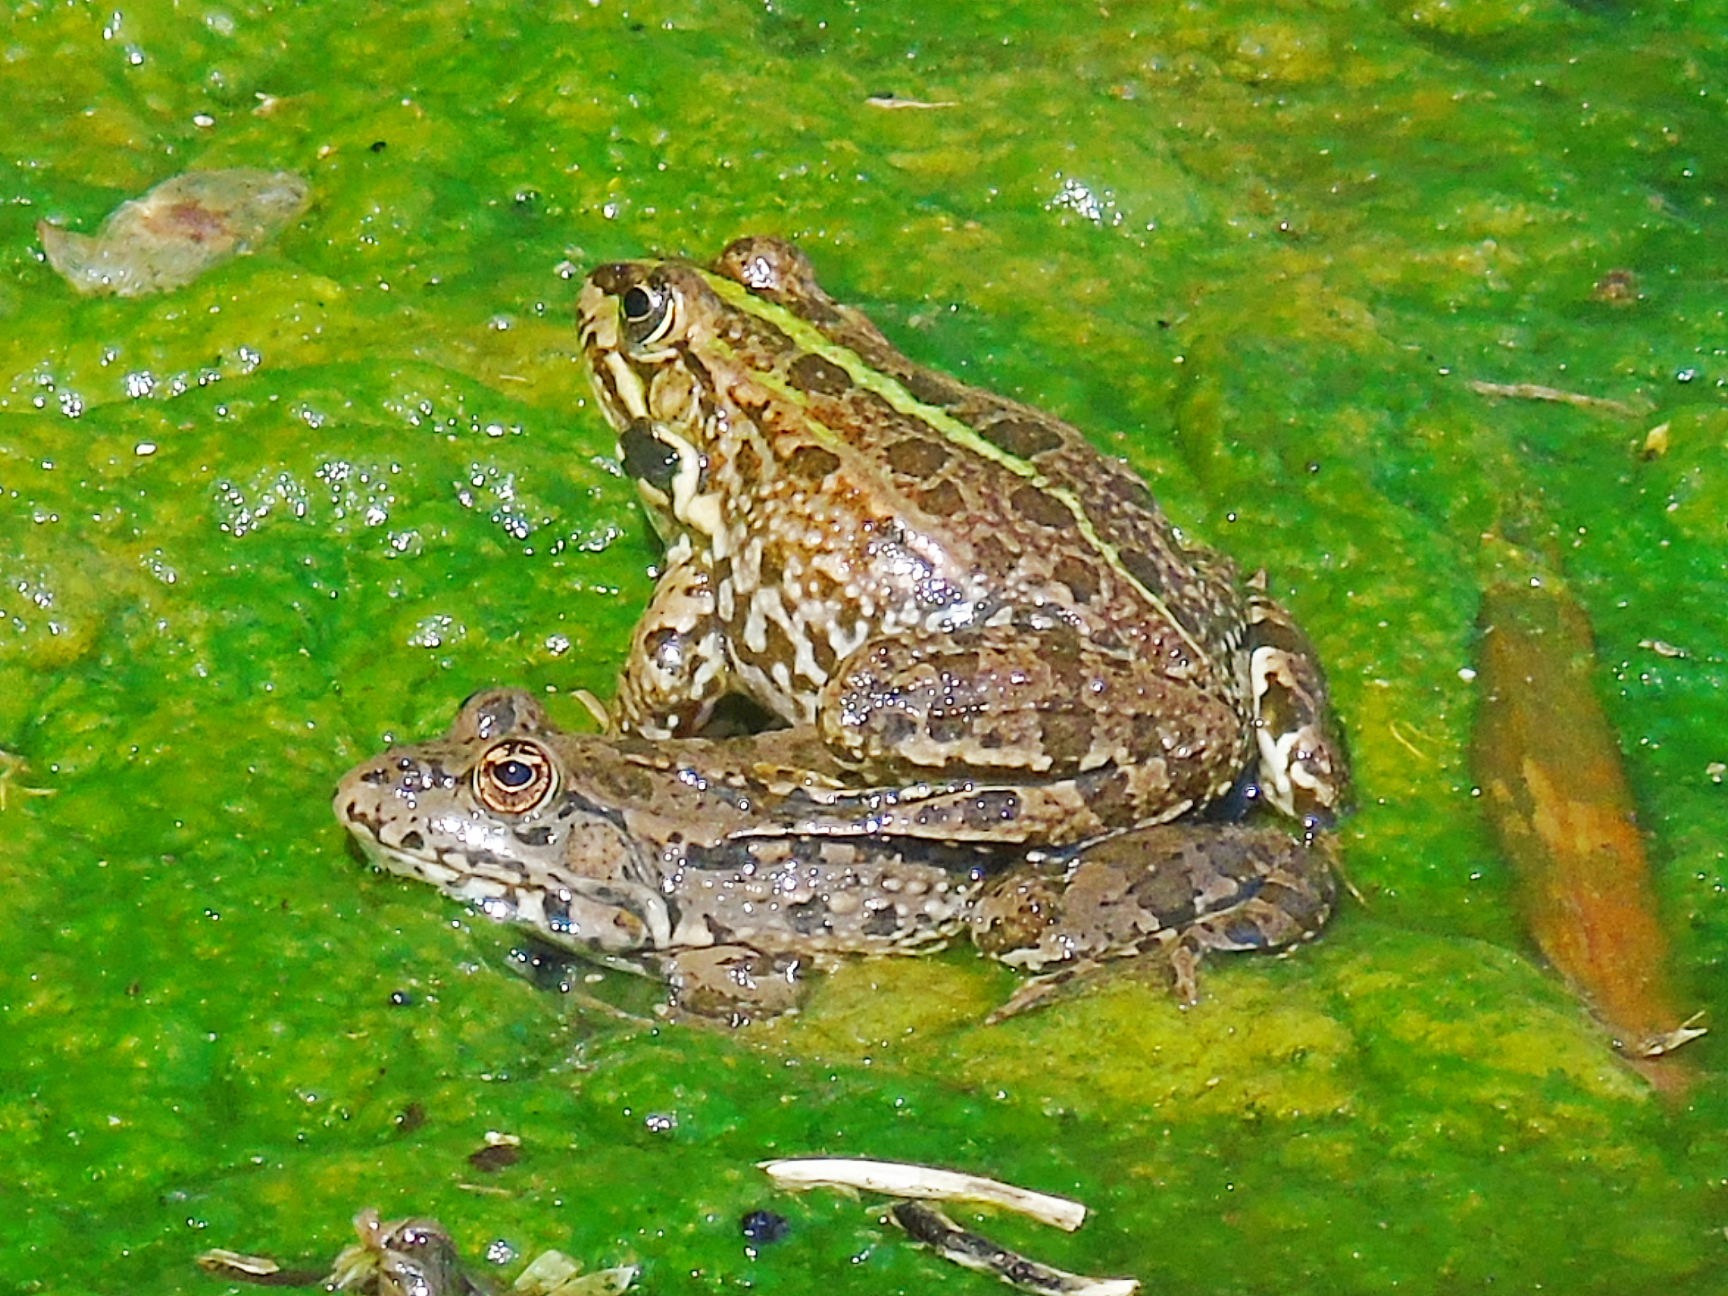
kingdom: Animalia
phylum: Chordata
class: Amphibia
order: Anura
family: Ranidae
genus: Pelophylax
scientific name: Pelophylax ridibundus
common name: Marsh frog
